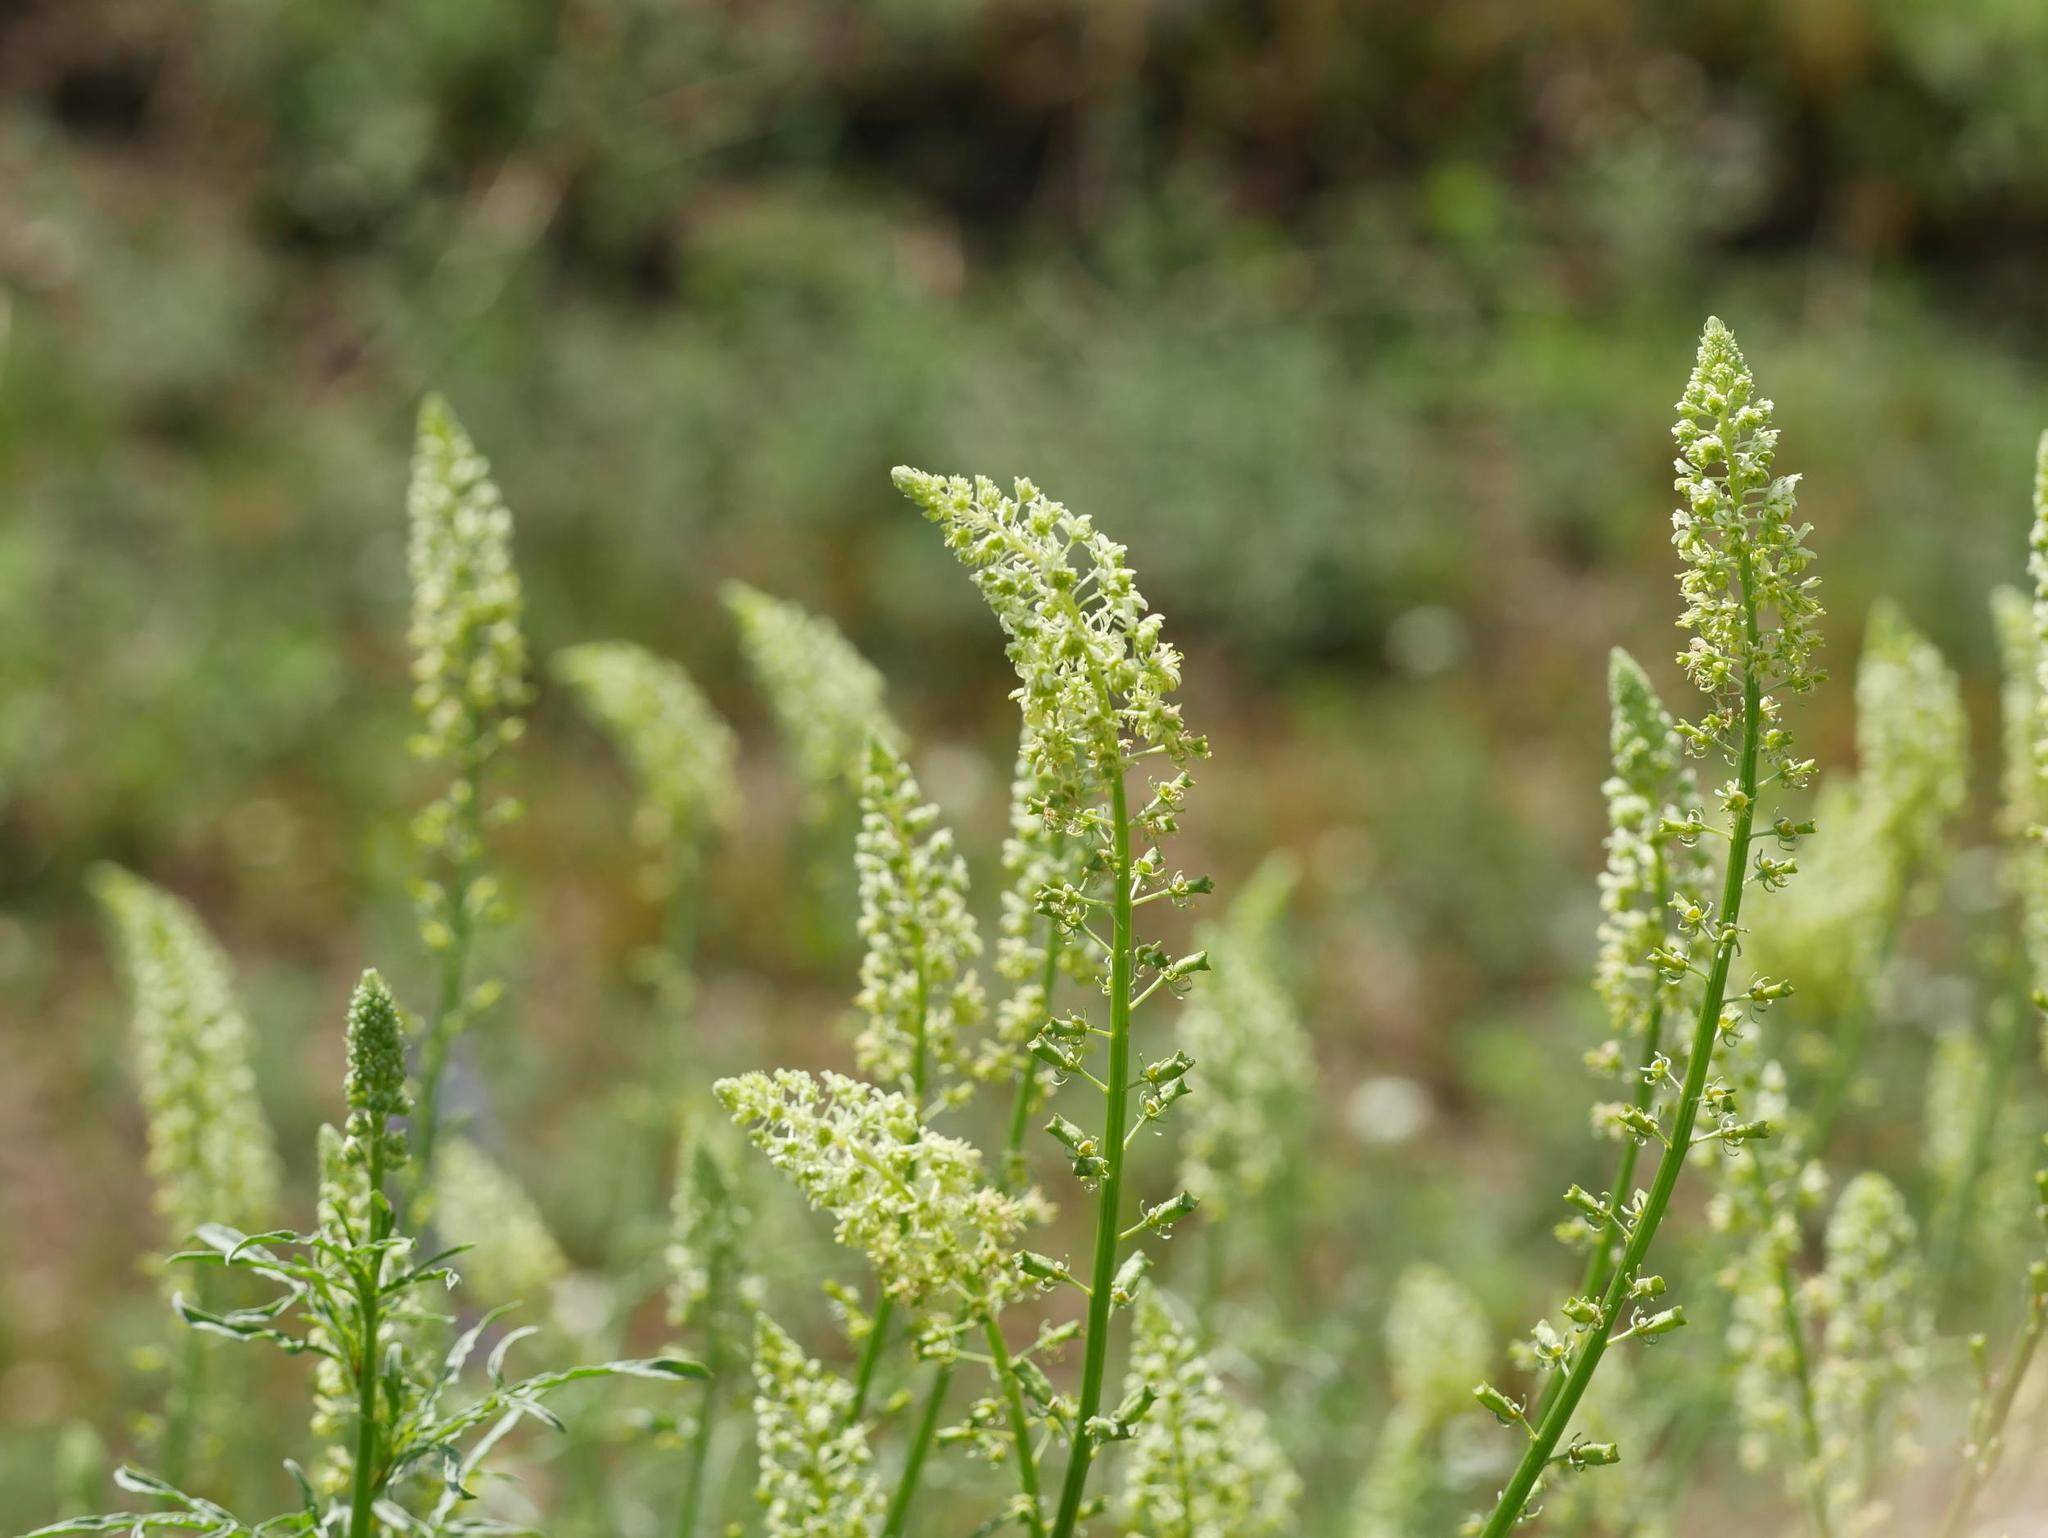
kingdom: Plantae
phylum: Tracheophyta
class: Magnoliopsida
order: Brassicales
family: Resedaceae
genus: Reseda
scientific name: Reseda lutea
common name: Wild mignonette
